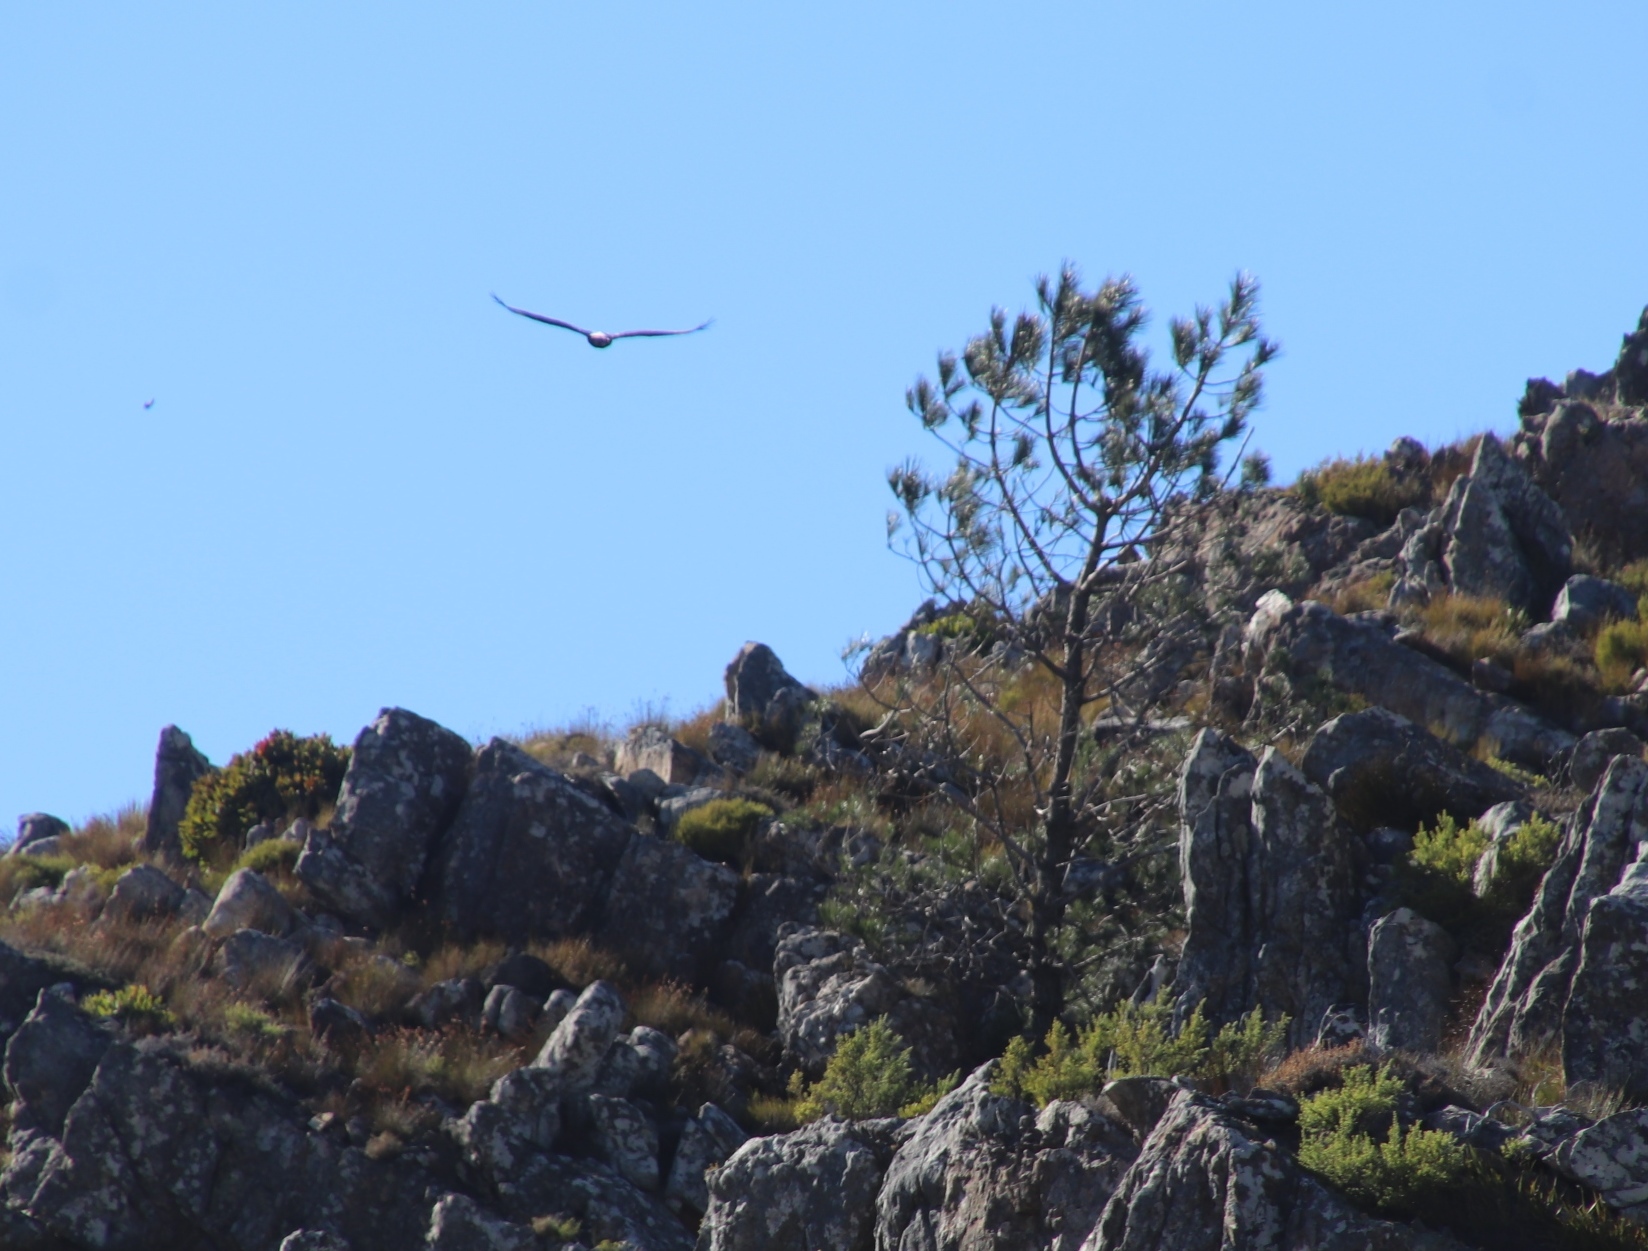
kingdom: Plantae
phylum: Tracheophyta
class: Pinopsida
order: Pinales
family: Pinaceae
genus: Pinus
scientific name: Pinus pinaster
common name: Maritime pine
